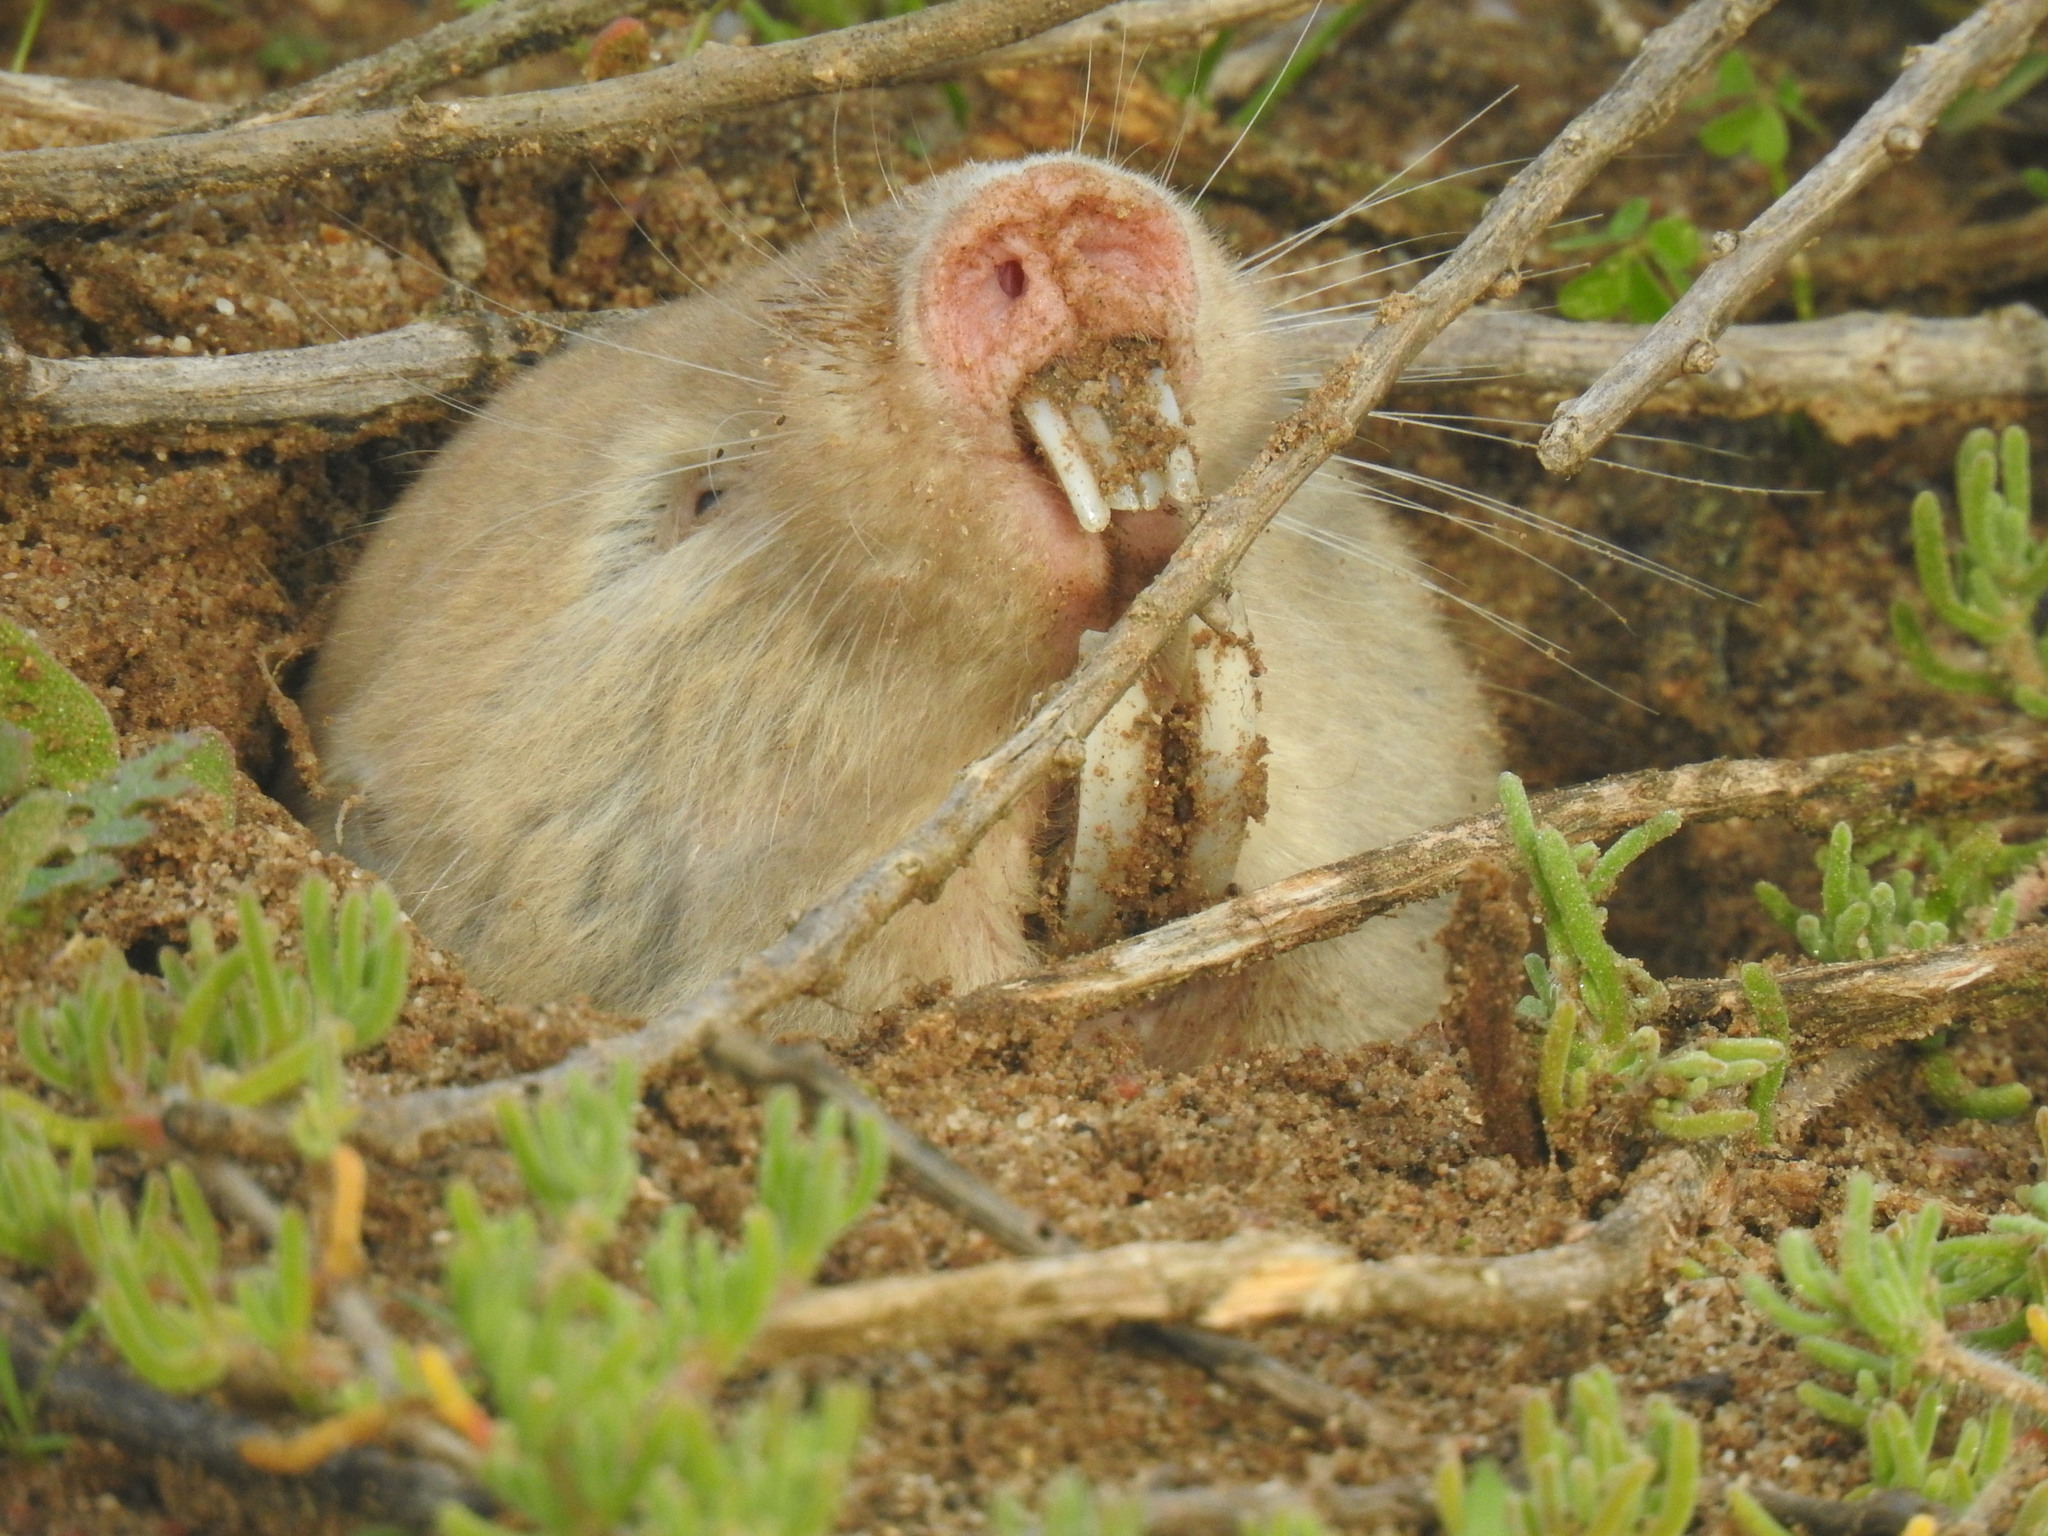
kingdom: Animalia
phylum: Chordata
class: Mammalia
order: Rodentia
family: Bathyergidae
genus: Bathyergus
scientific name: Bathyergus suillus
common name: Cape dune mole rat
